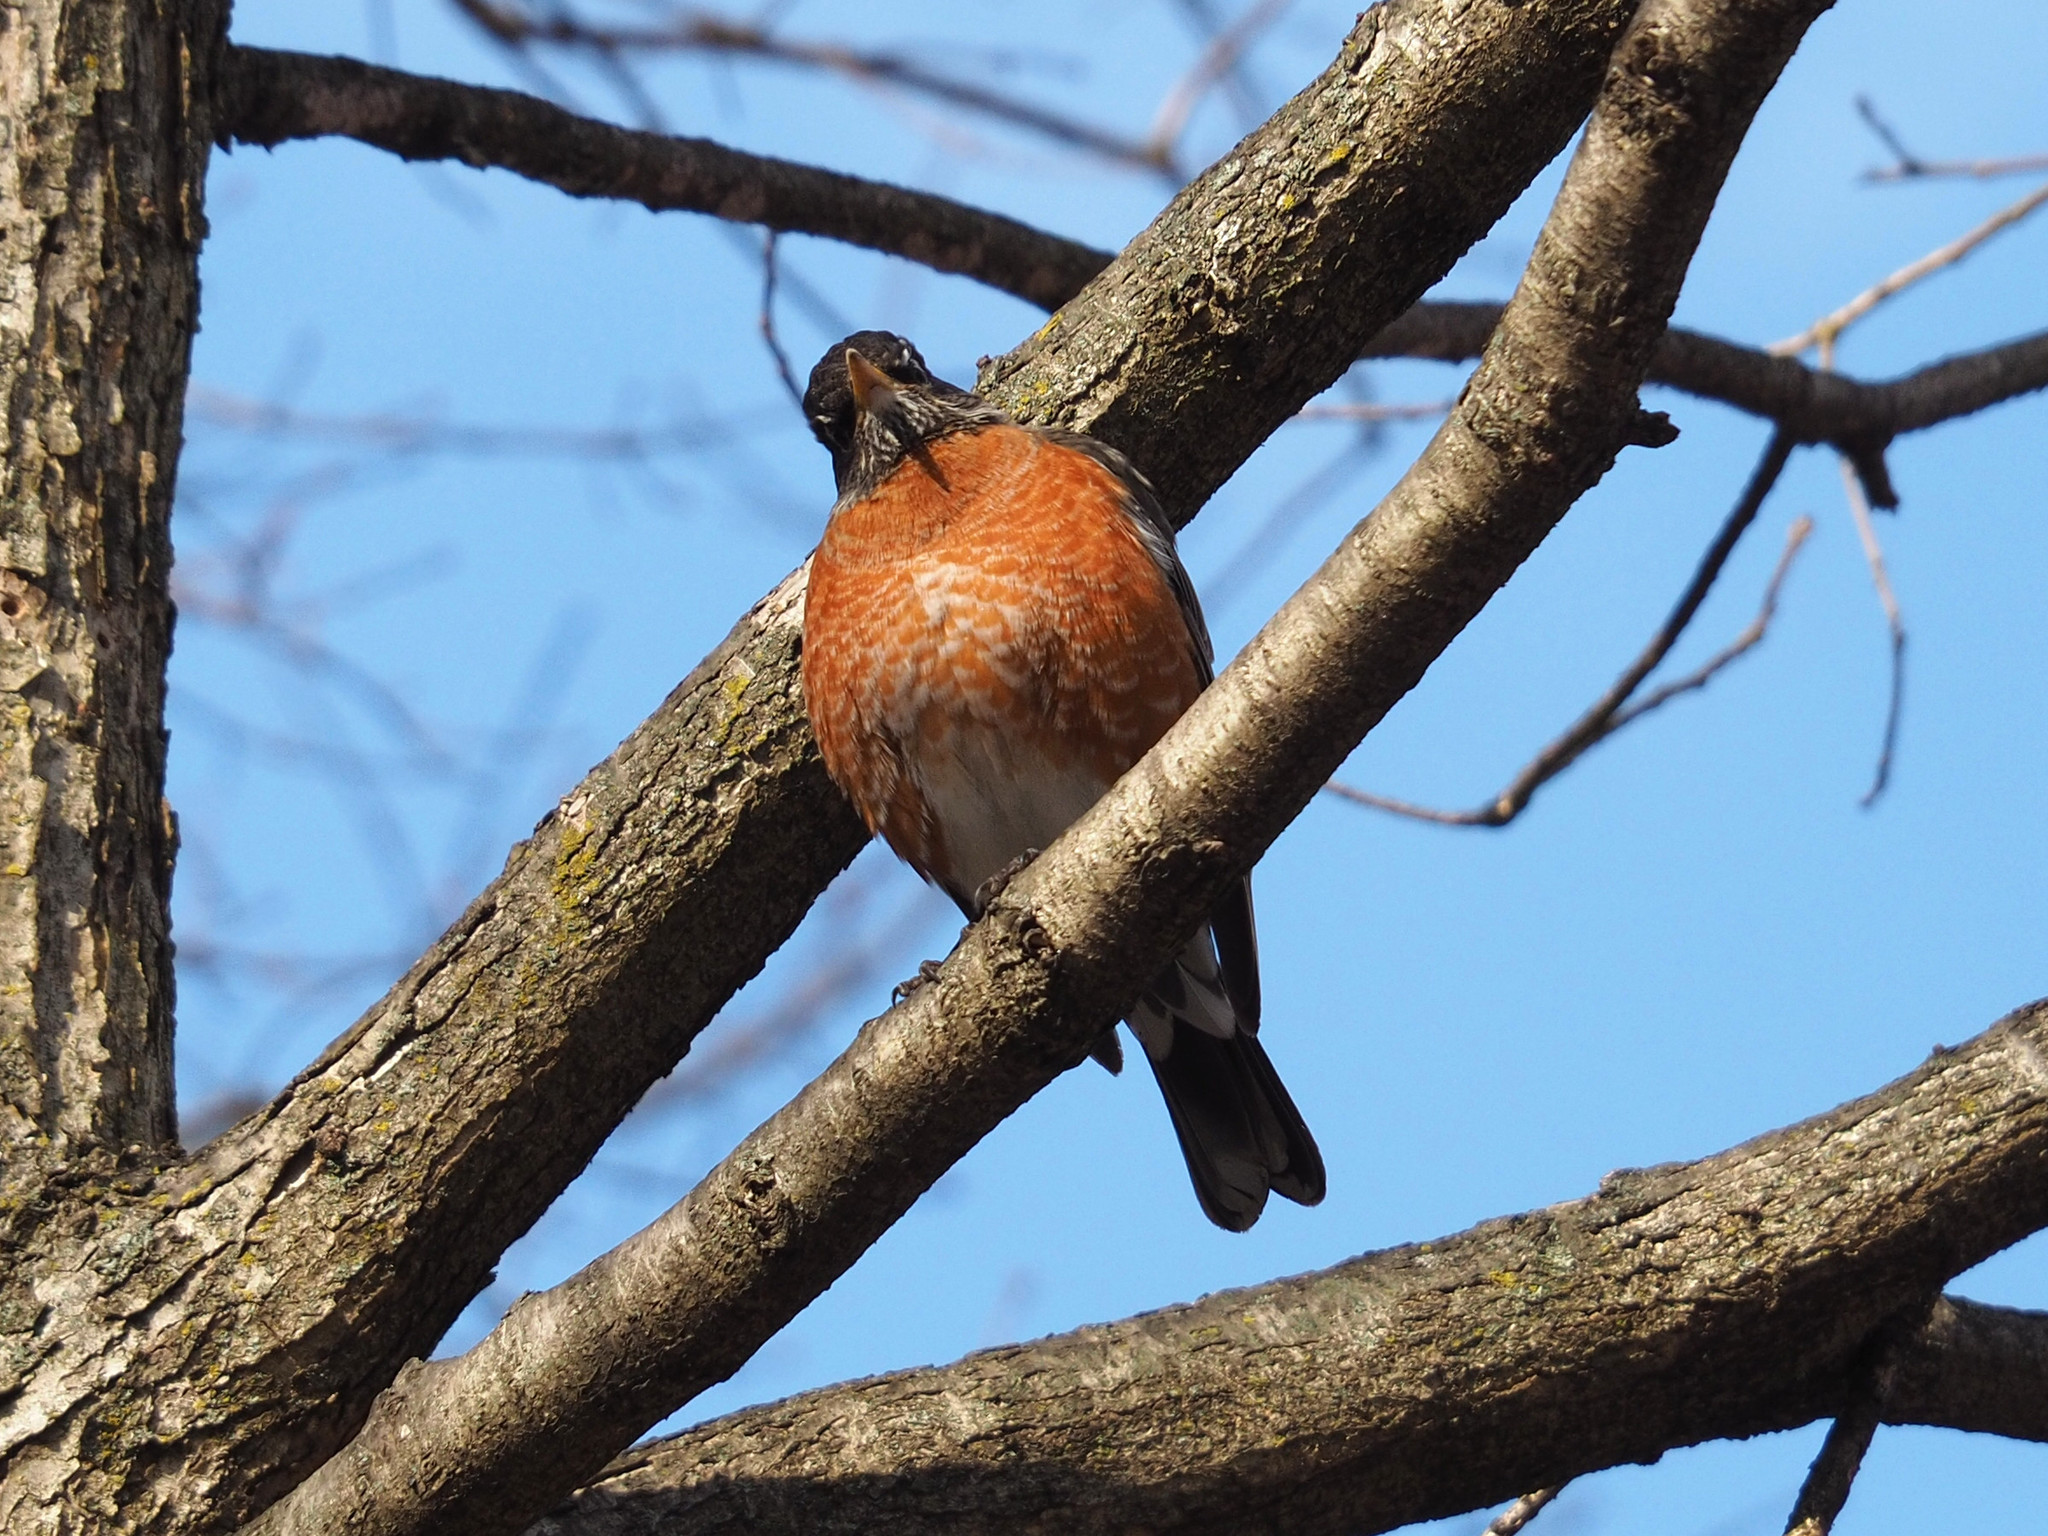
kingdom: Animalia
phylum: Chordata
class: Aves
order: Passeriformes
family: Turdidae
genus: Turdus
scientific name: Turdus migratorius
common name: American robin
